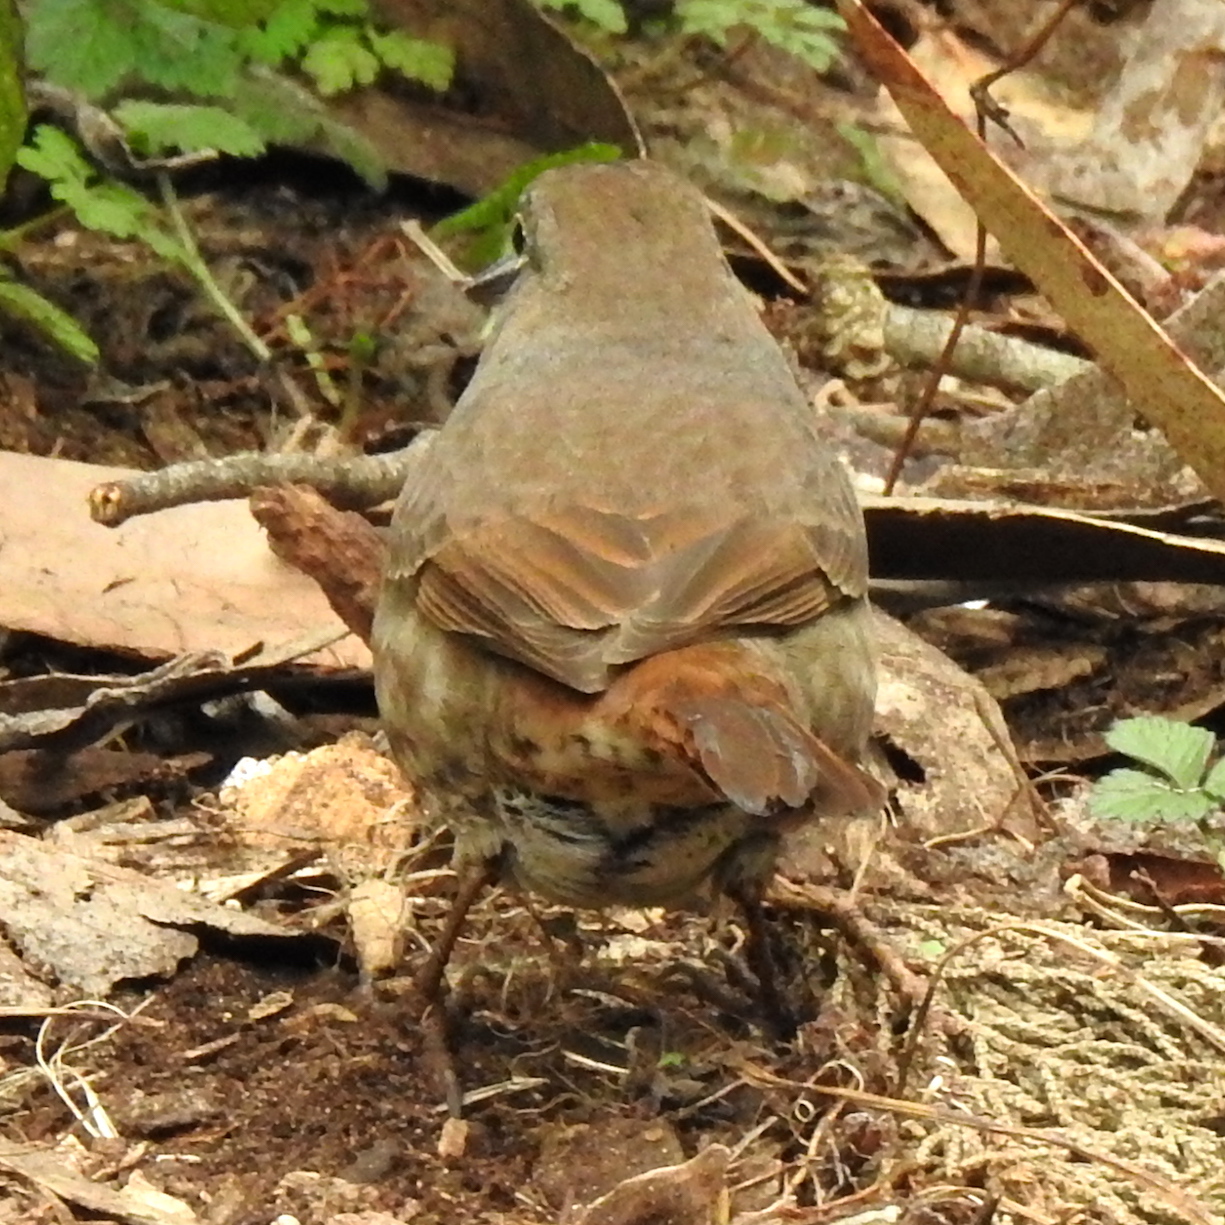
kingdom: Animalia
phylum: Chordata
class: Aves
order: Passeriformes
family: Passerellidae
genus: Passerella
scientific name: Passerella iliaca
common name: Fox sparrow
